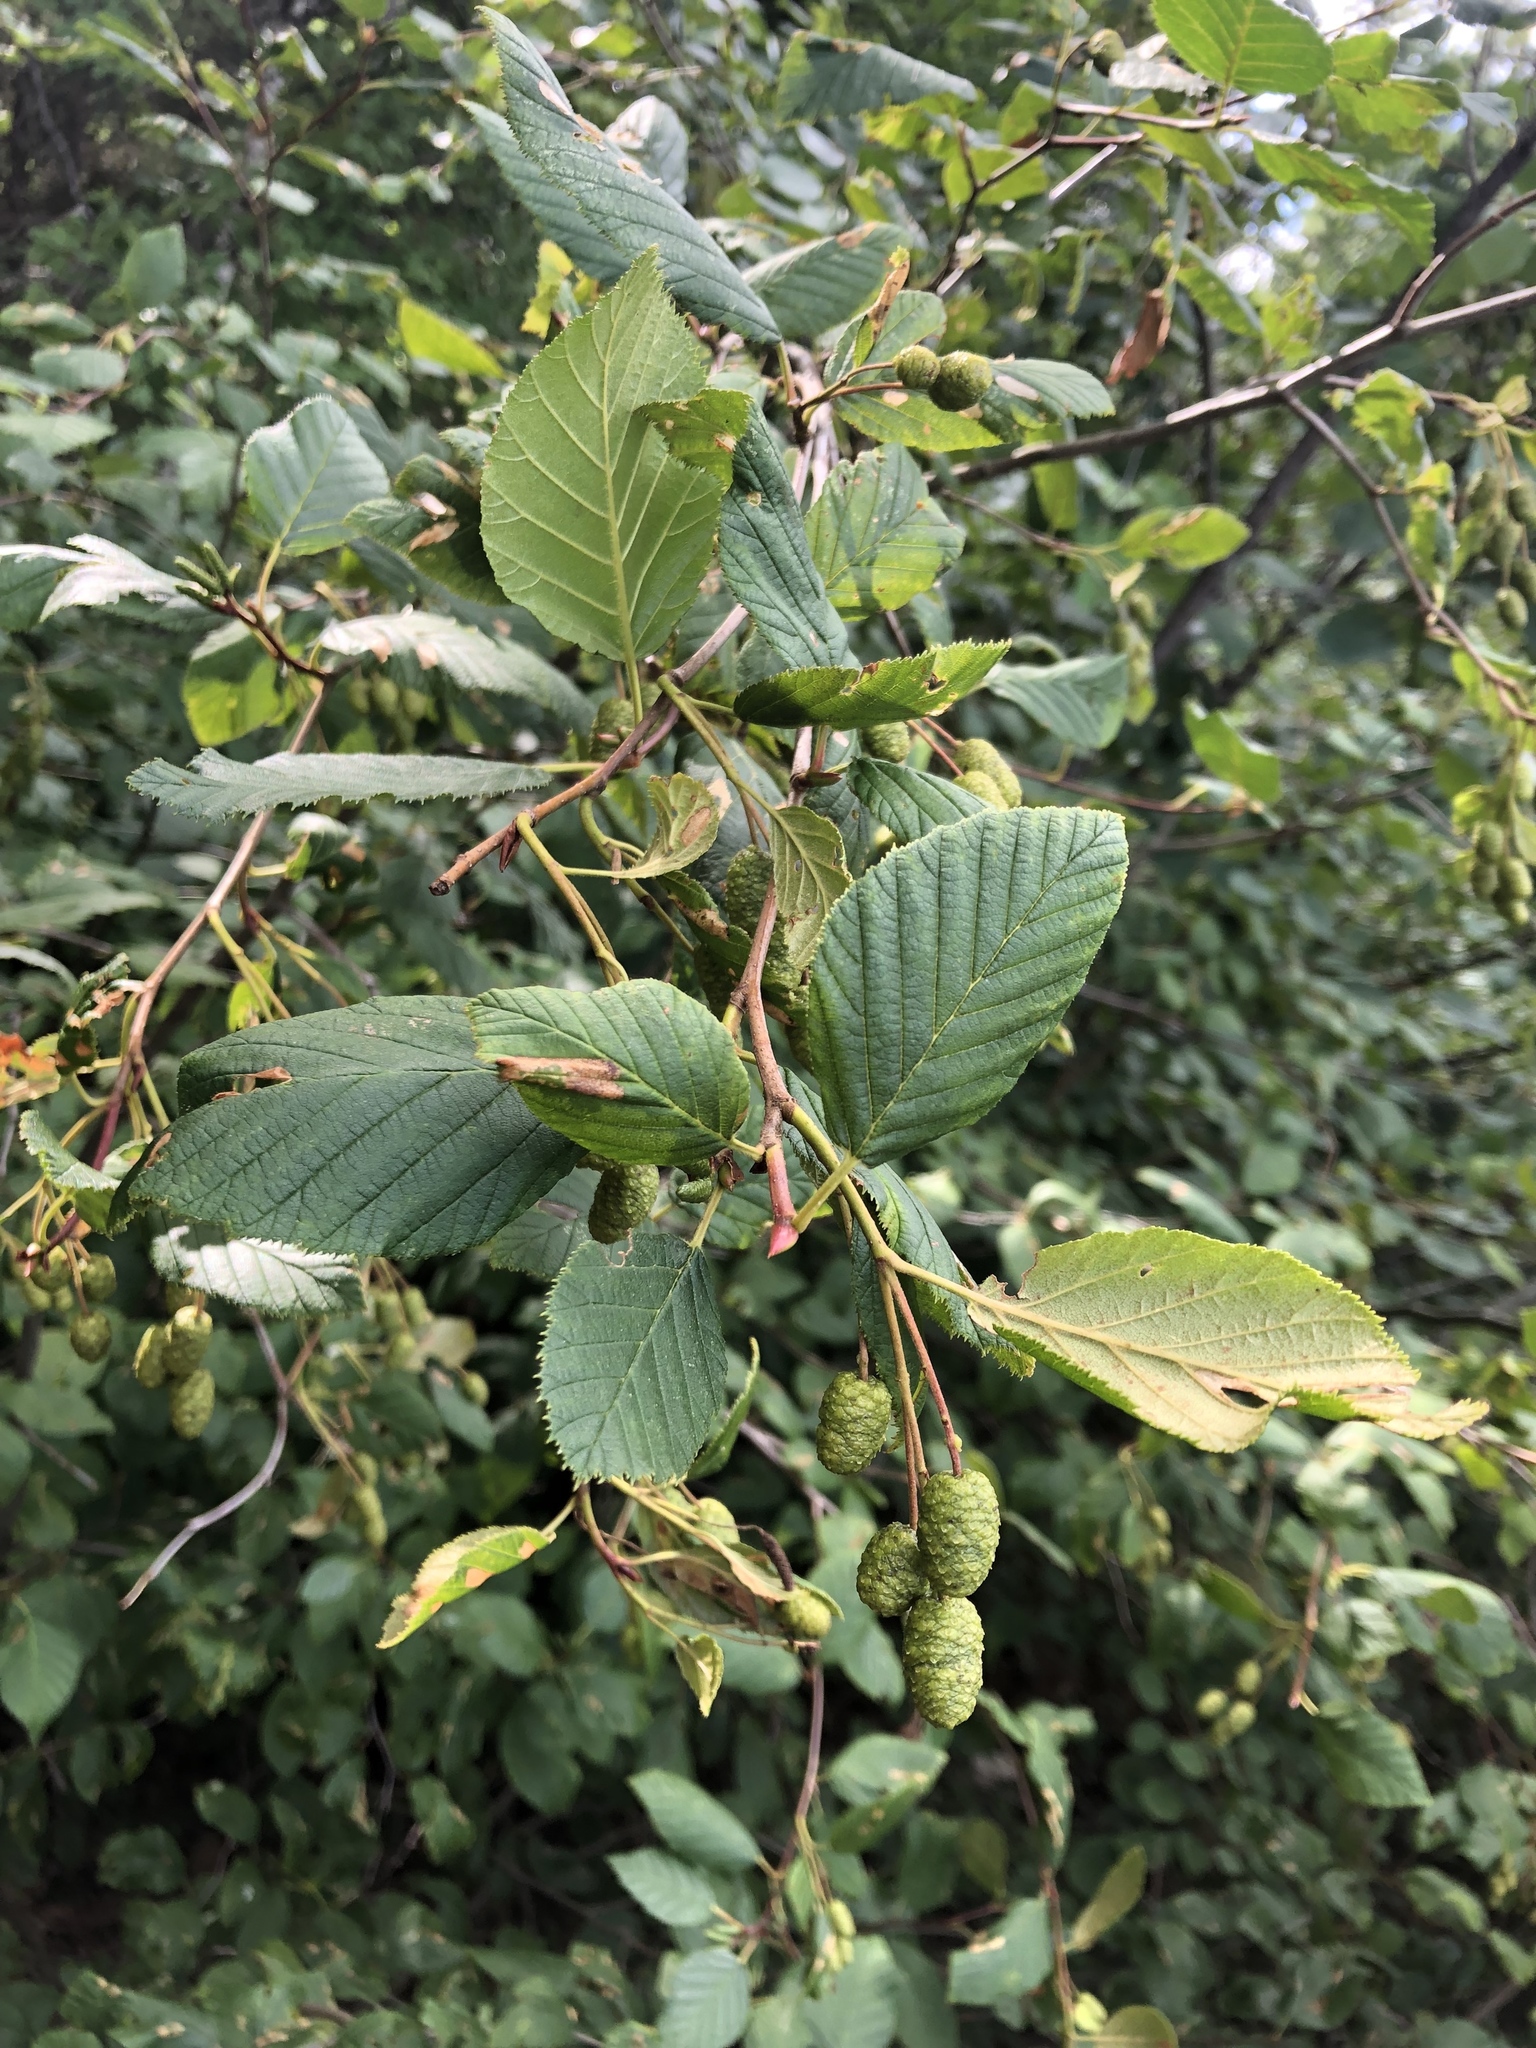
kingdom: Plantae
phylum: Tracheophyta
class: Magnoliopsida
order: Fagales
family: Betulaceae
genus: Alnus
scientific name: Alnus alnobetula
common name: Green alder
